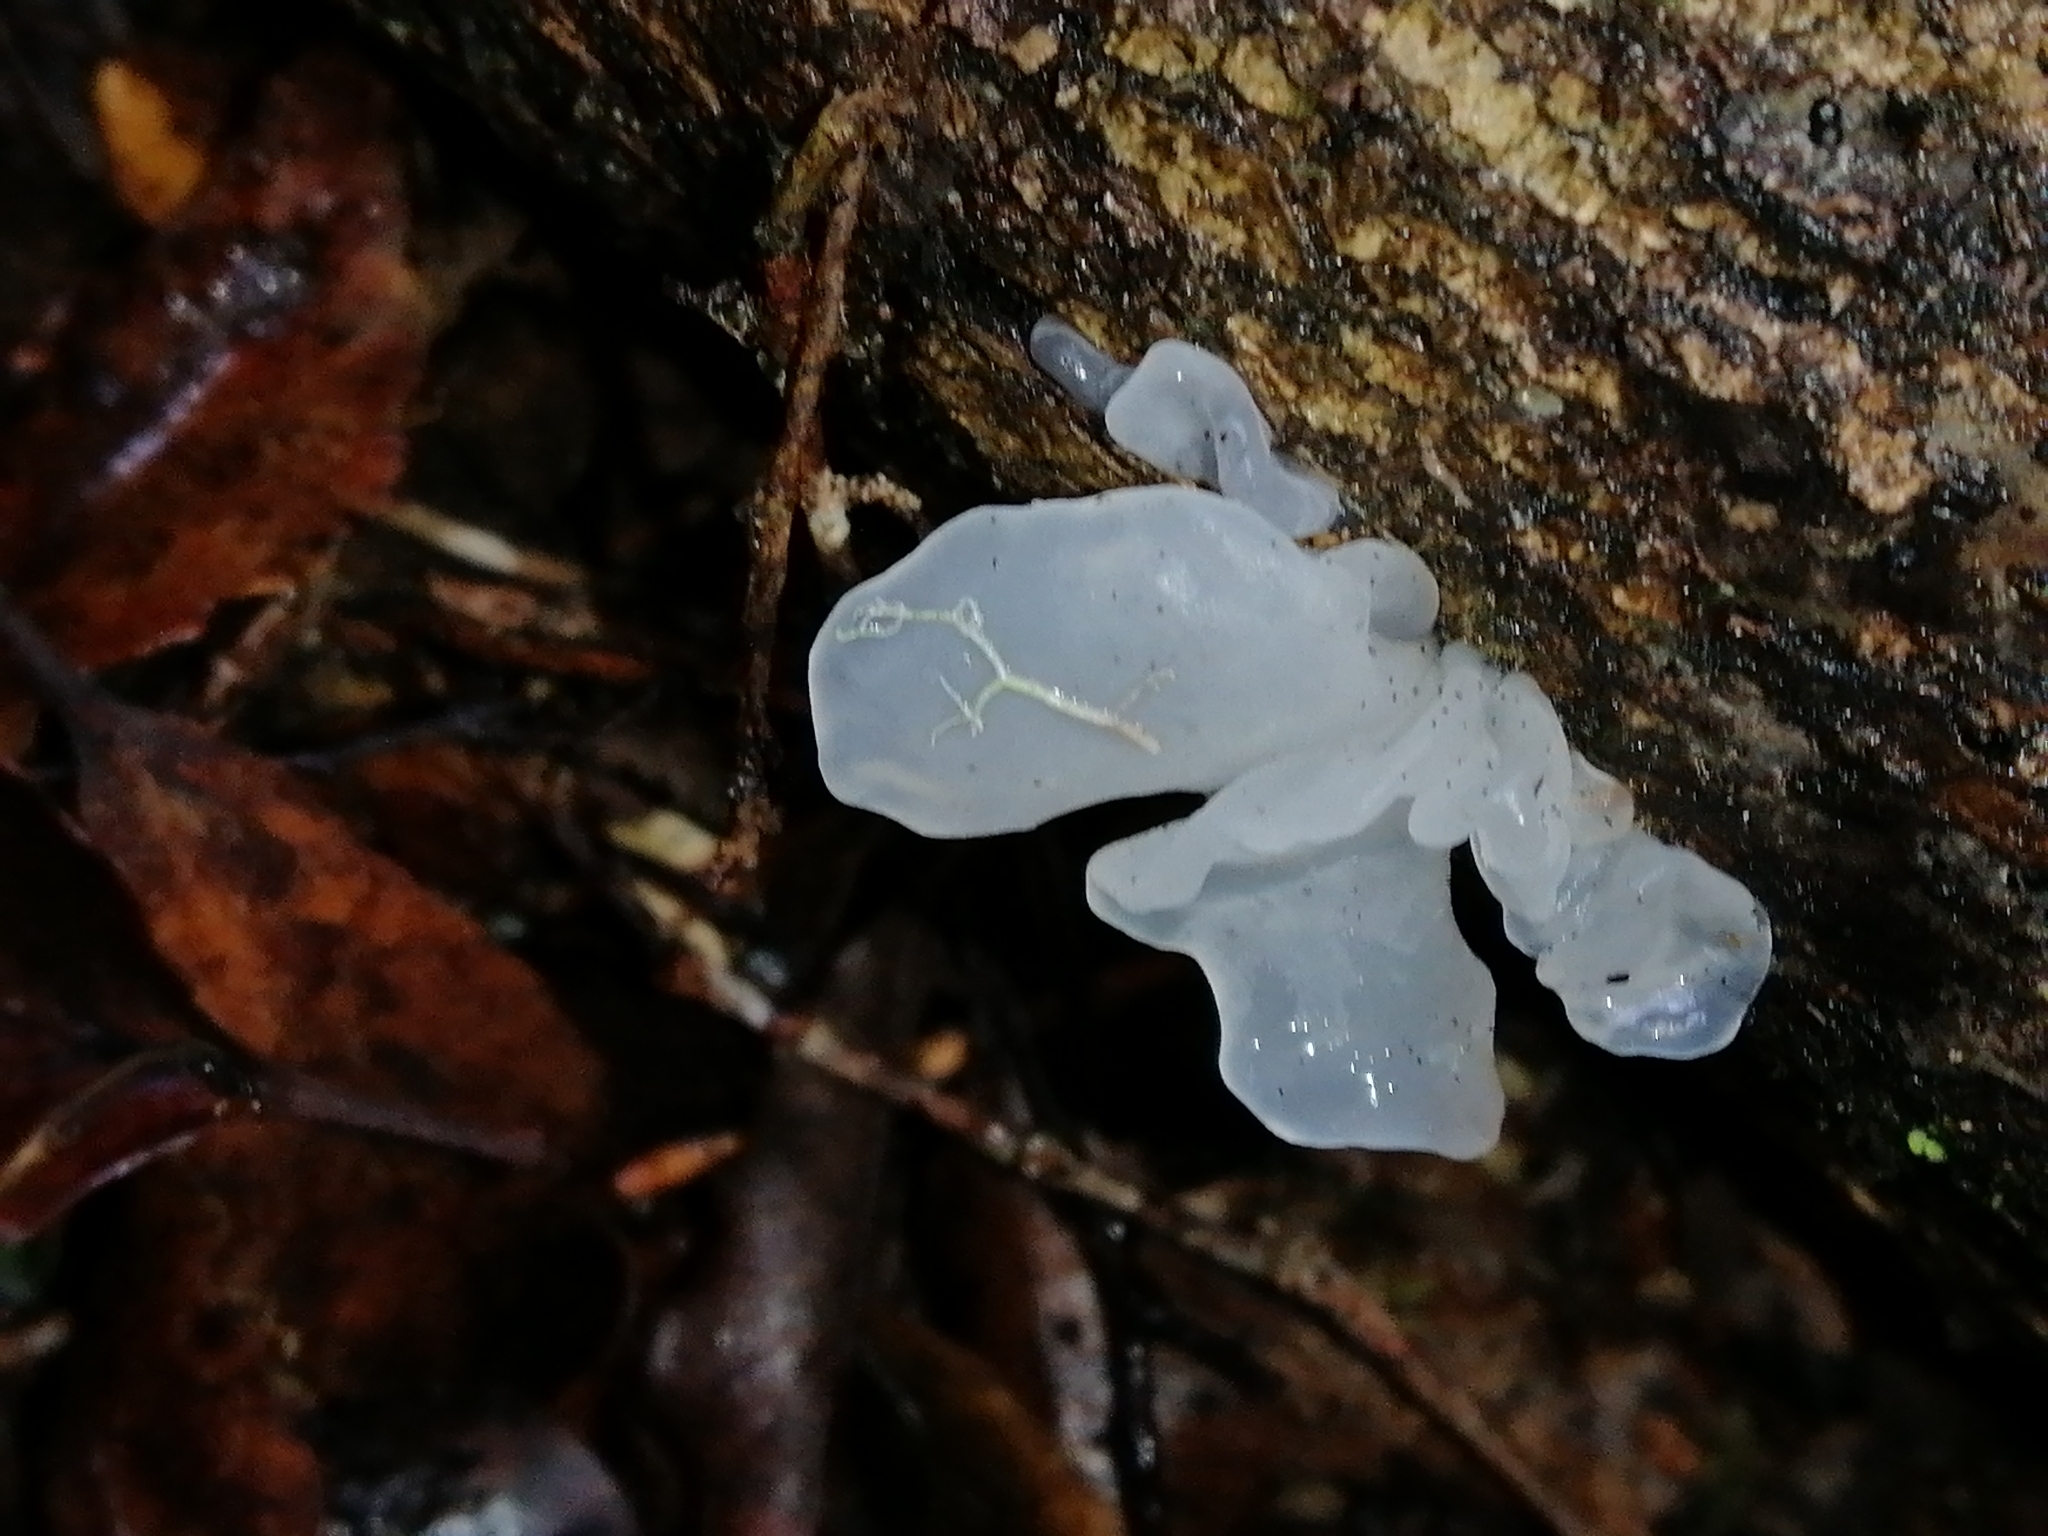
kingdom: Fungi
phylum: Basidiomycota
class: Tremellomycetes
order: Tremellales
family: Tremellaceae
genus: Tremella
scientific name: Tremella fuciformis
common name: Snow fungus
